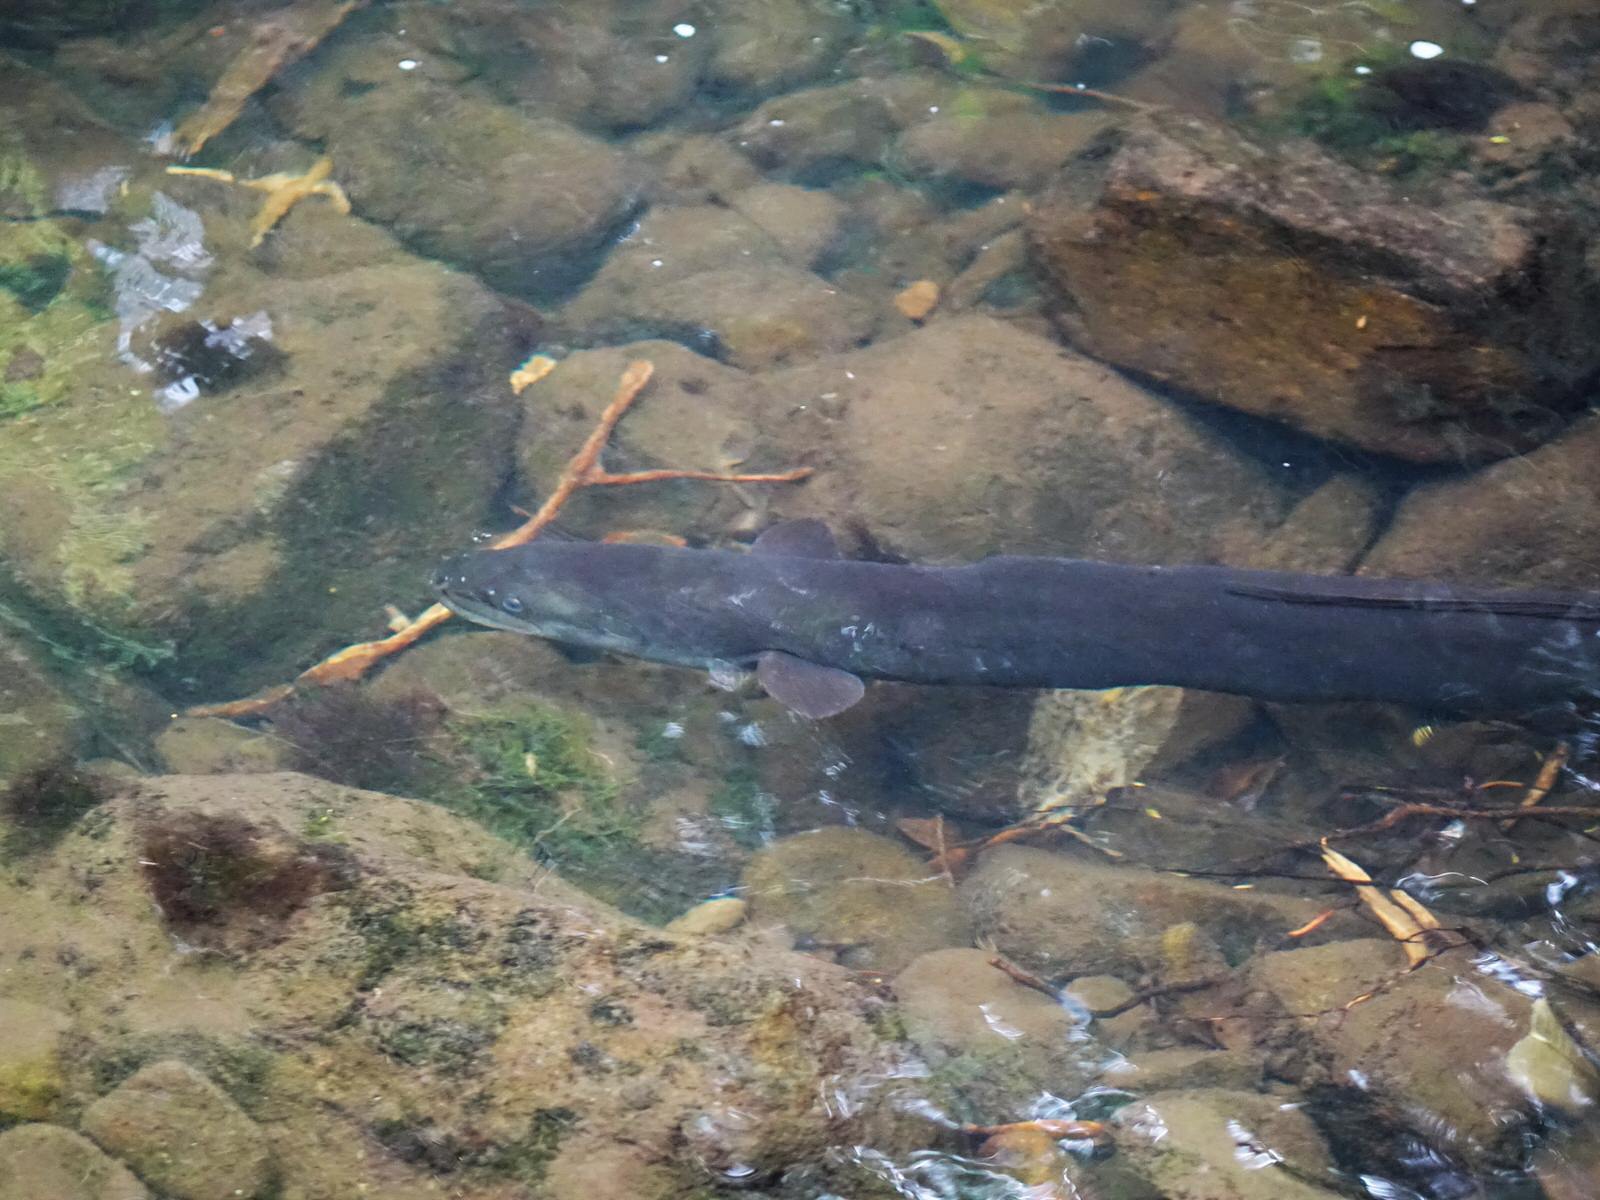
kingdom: Animalia
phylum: Chordata
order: Anguilliformes
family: Anguillidae
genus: Anguilla
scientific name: Anguilla dieffenbachii
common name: New zealand longfin eel
